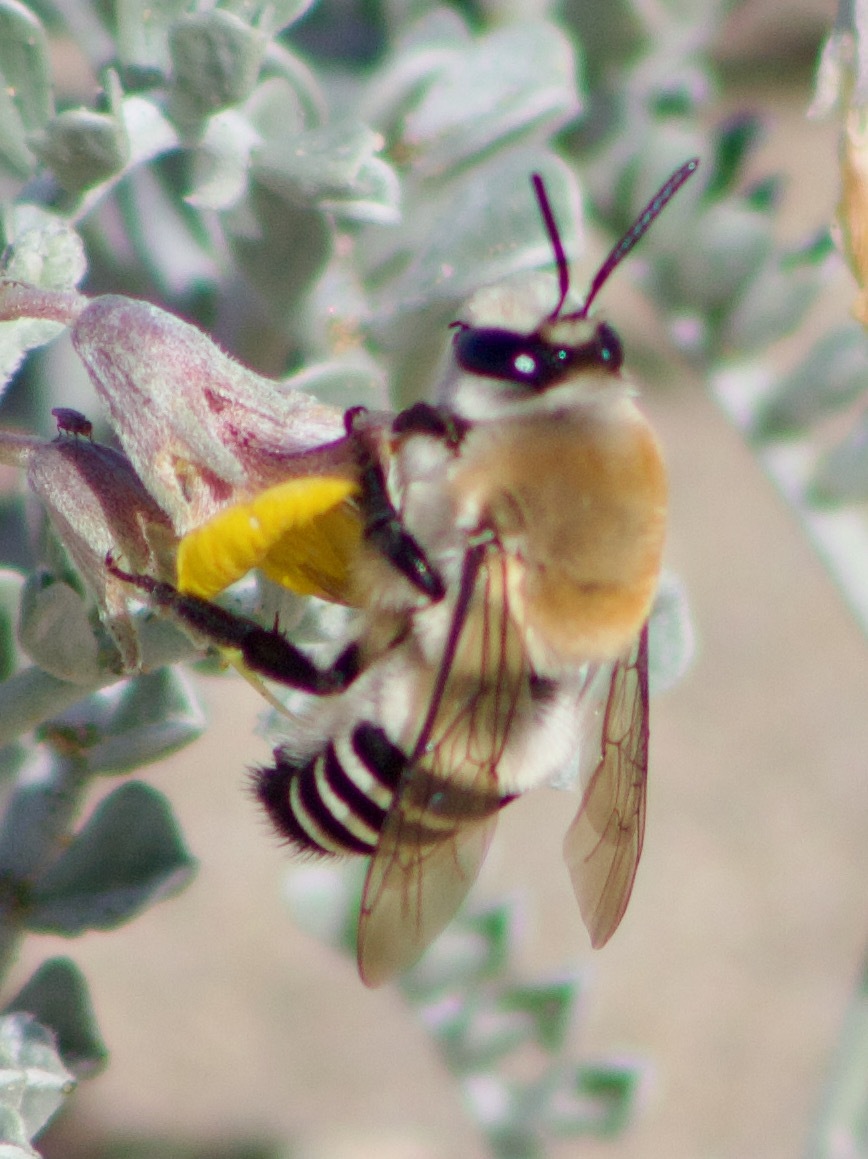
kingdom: Animalia
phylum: Arthropoda
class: Insecta
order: Hymenoptera
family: Colletidae
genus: Caupolicana
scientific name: Caupolicana fulvicollis
